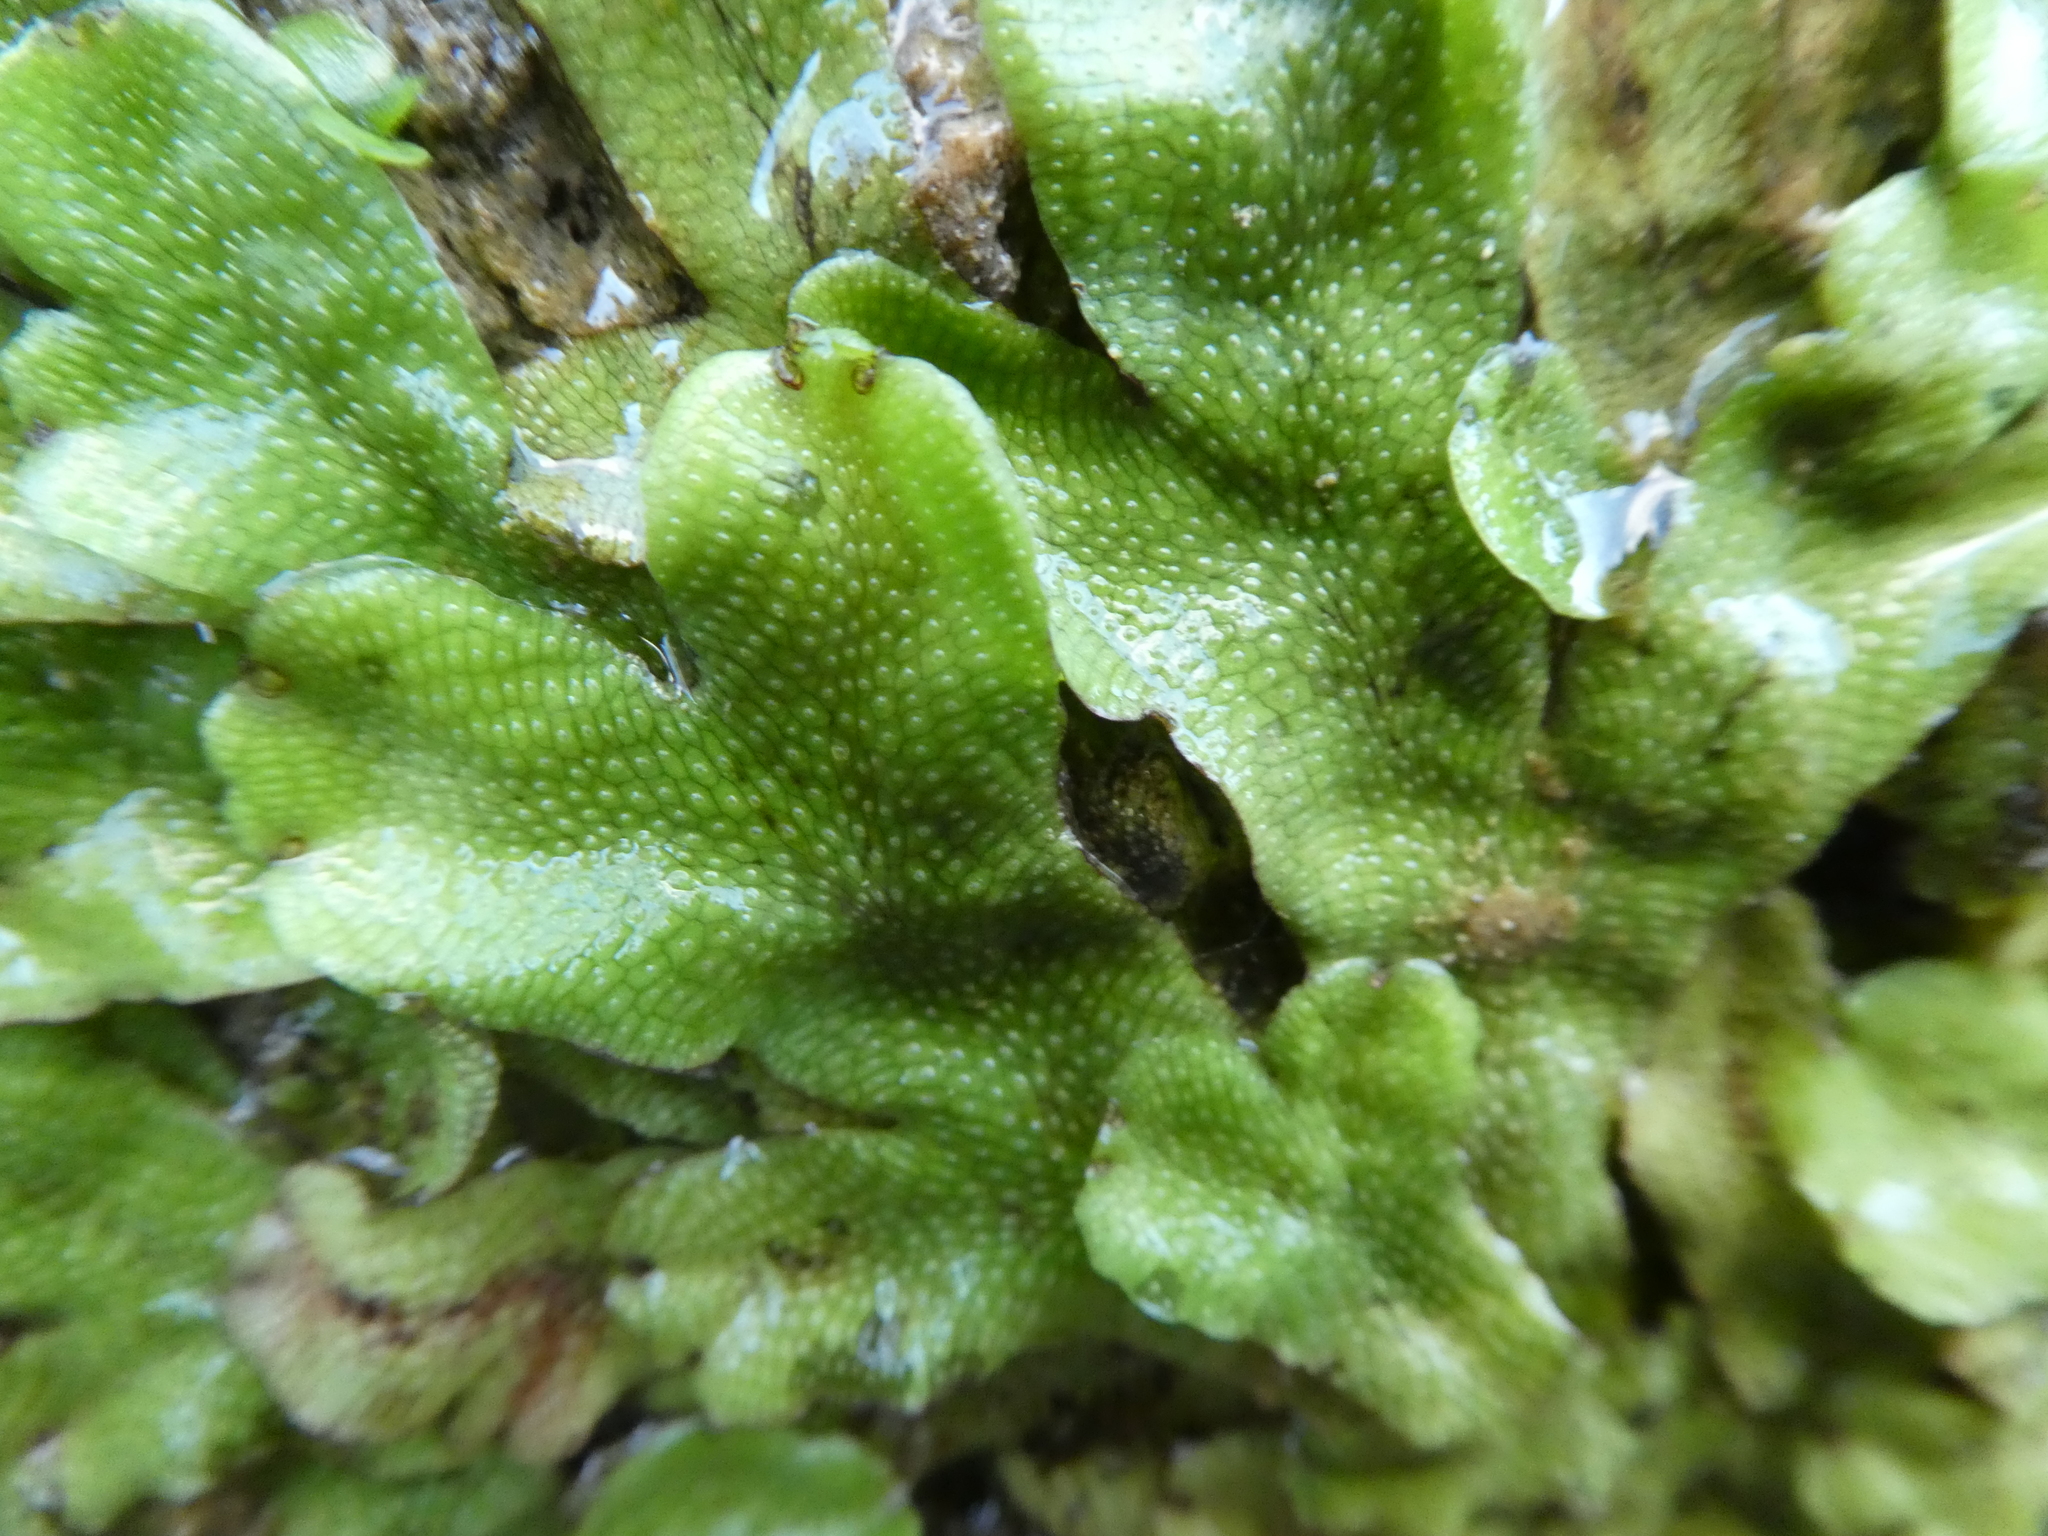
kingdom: Plantae
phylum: Marchantiophyta
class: Marchantiopsida
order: Marchantiales
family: Conocephalaceae
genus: Conocephalum
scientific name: Conocephalum conicum
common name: Great scented liverwort
